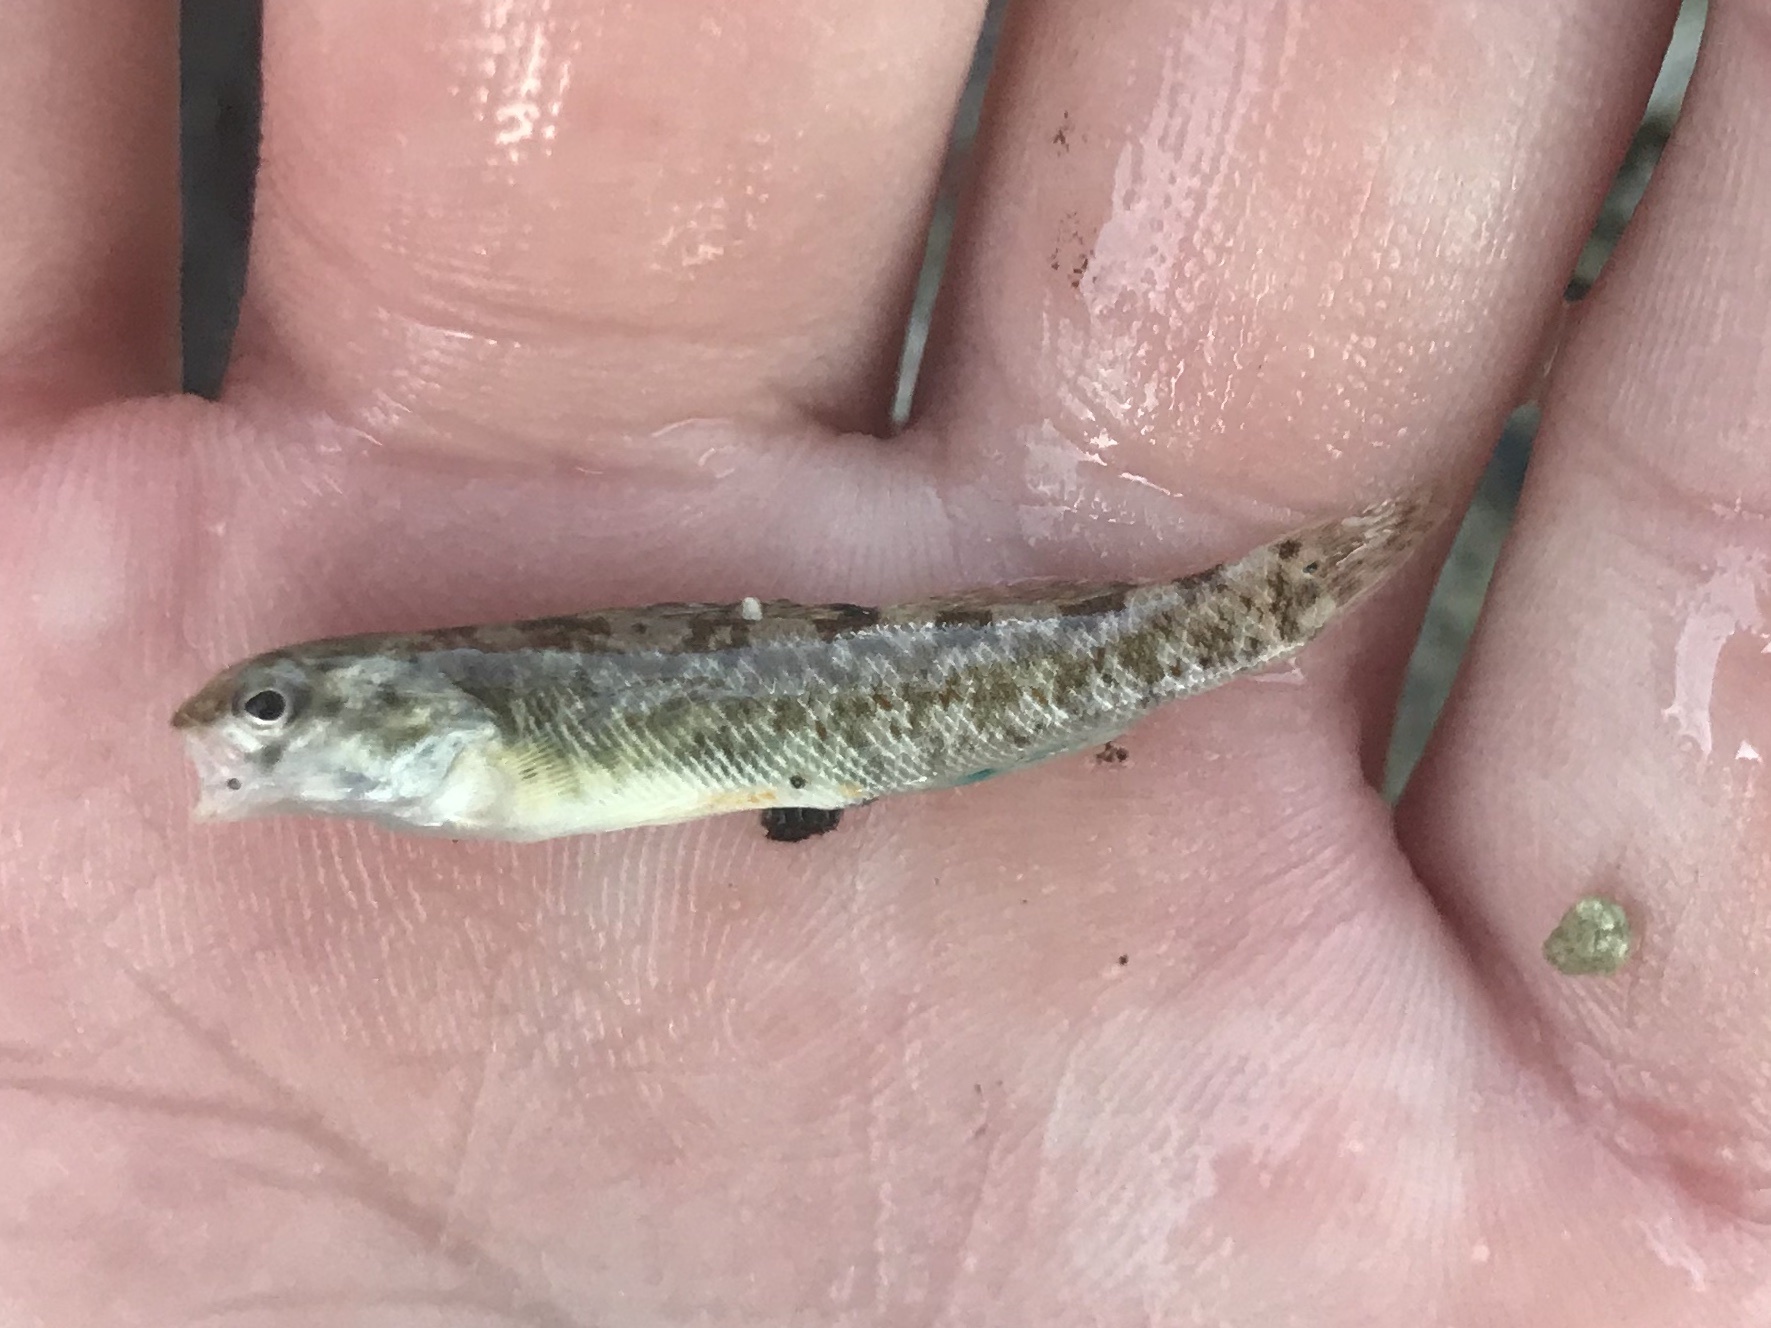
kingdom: Animalia
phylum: Chordata
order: Perciformes
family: Percidae
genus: Etheostoma
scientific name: Etheostoma lepidum
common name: Greenthroat darter
